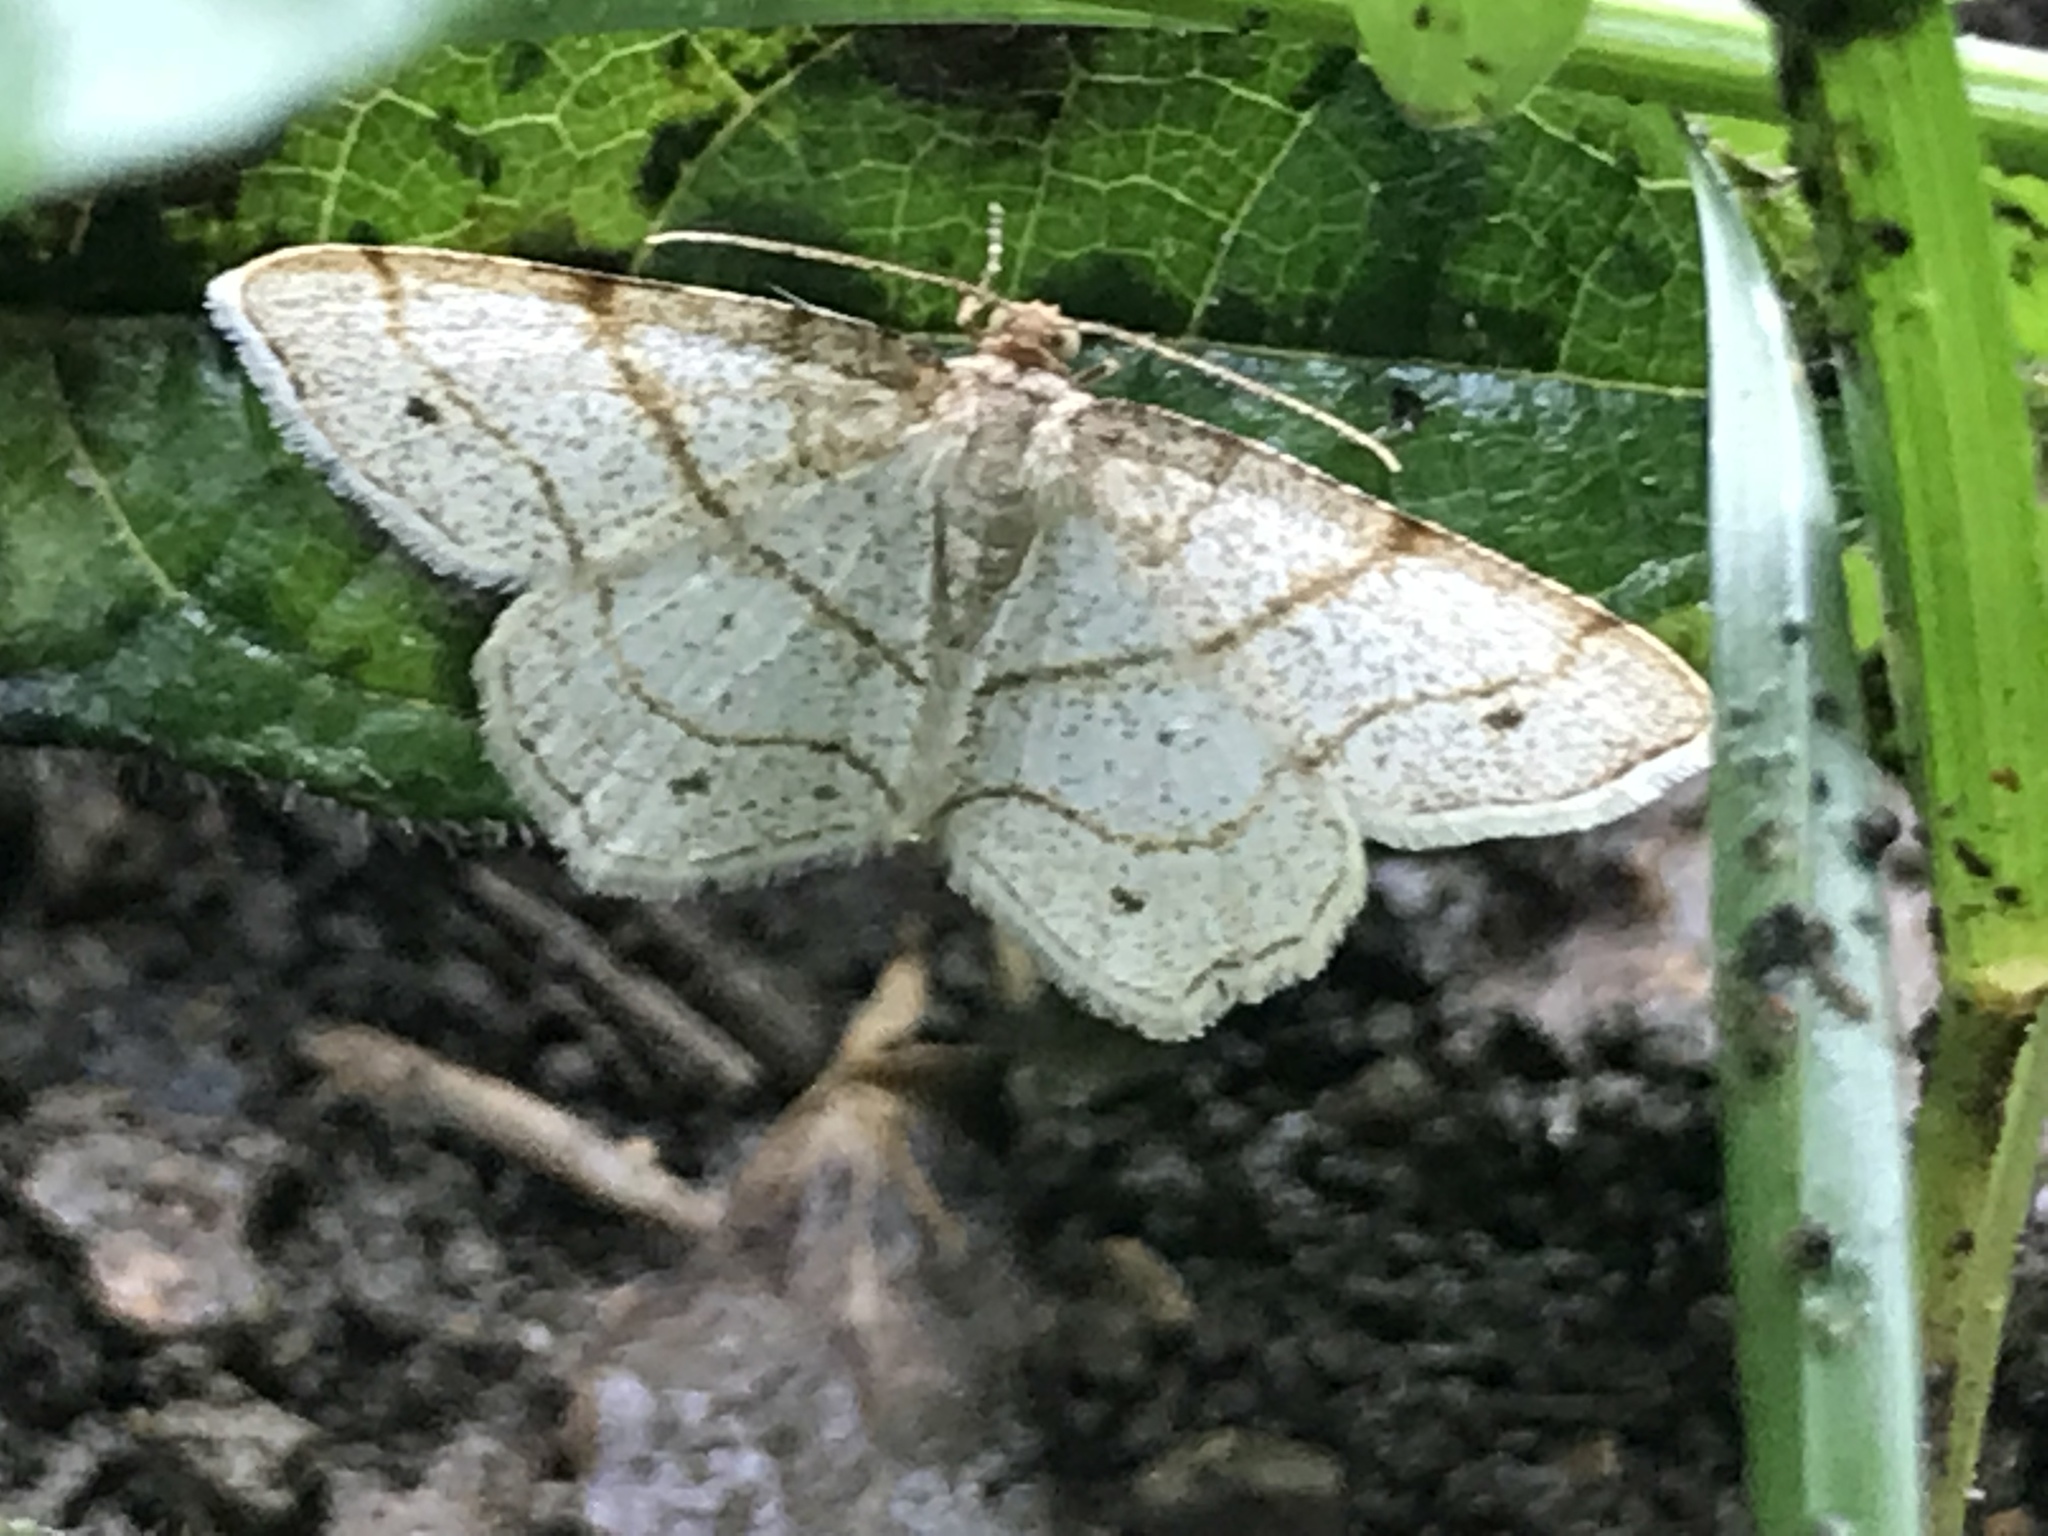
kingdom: Animalia
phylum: Arthropoda
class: Insecta
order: Lepidoptera
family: Geometridae
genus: Trigrammia
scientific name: Trigrammia quadrinotaria
